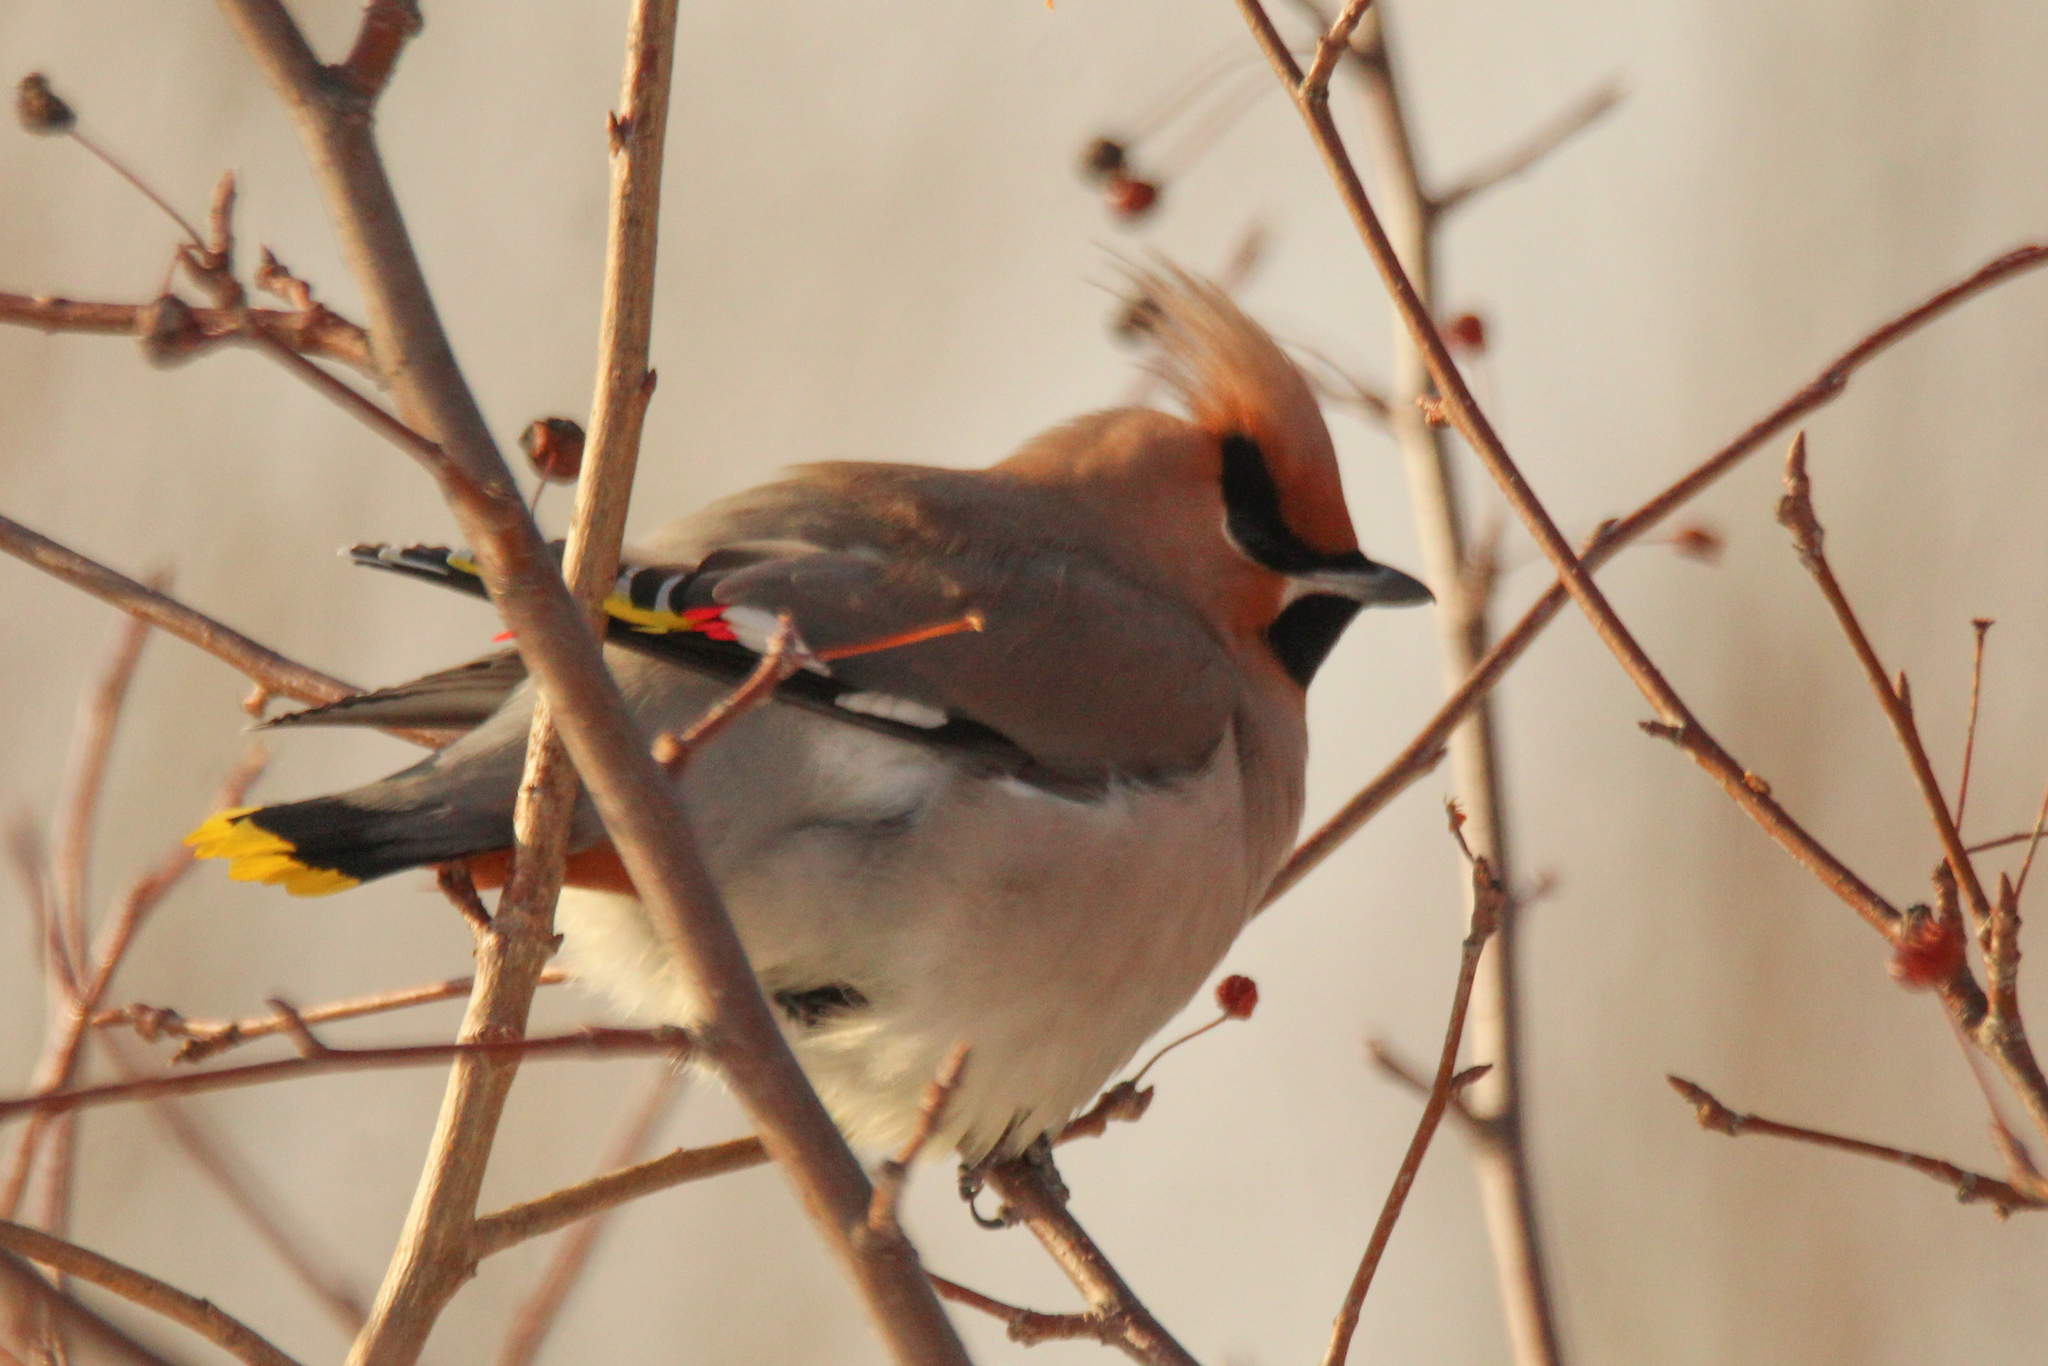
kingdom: Animalia
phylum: Chordata
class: Aves
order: Passeriformes
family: Bombycillidae
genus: Bombycilla
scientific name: Bombycilla garrulus
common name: Bohemian waxwing
